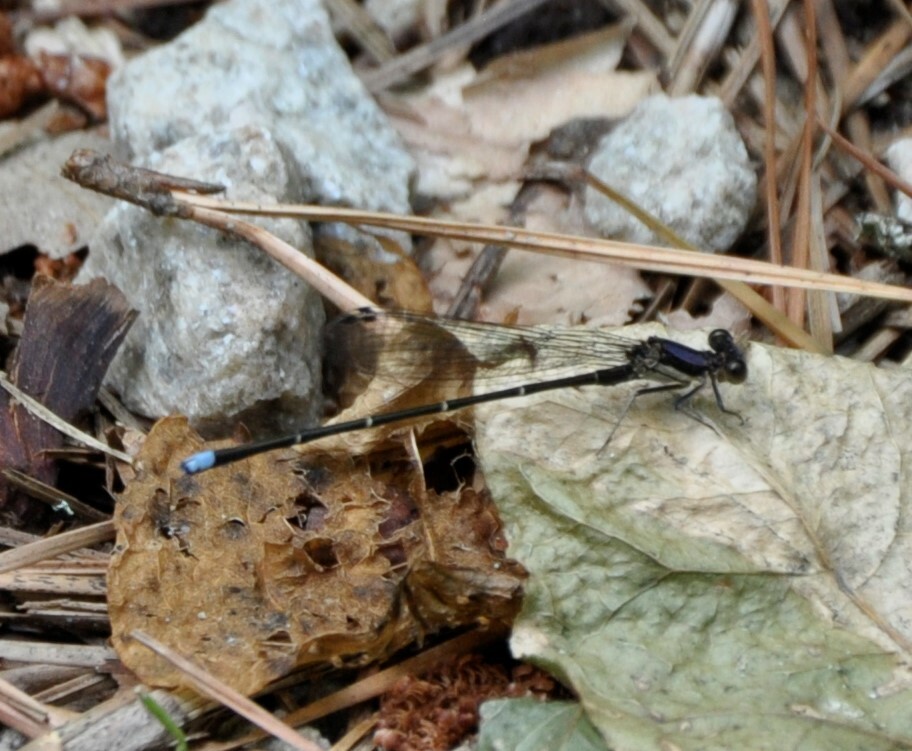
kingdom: Animalia
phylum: Arthropoda
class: Insecta
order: Odonata
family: Coenagrionidae
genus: Argia
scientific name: Argia tibialis
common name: Blue-tipped dancer
